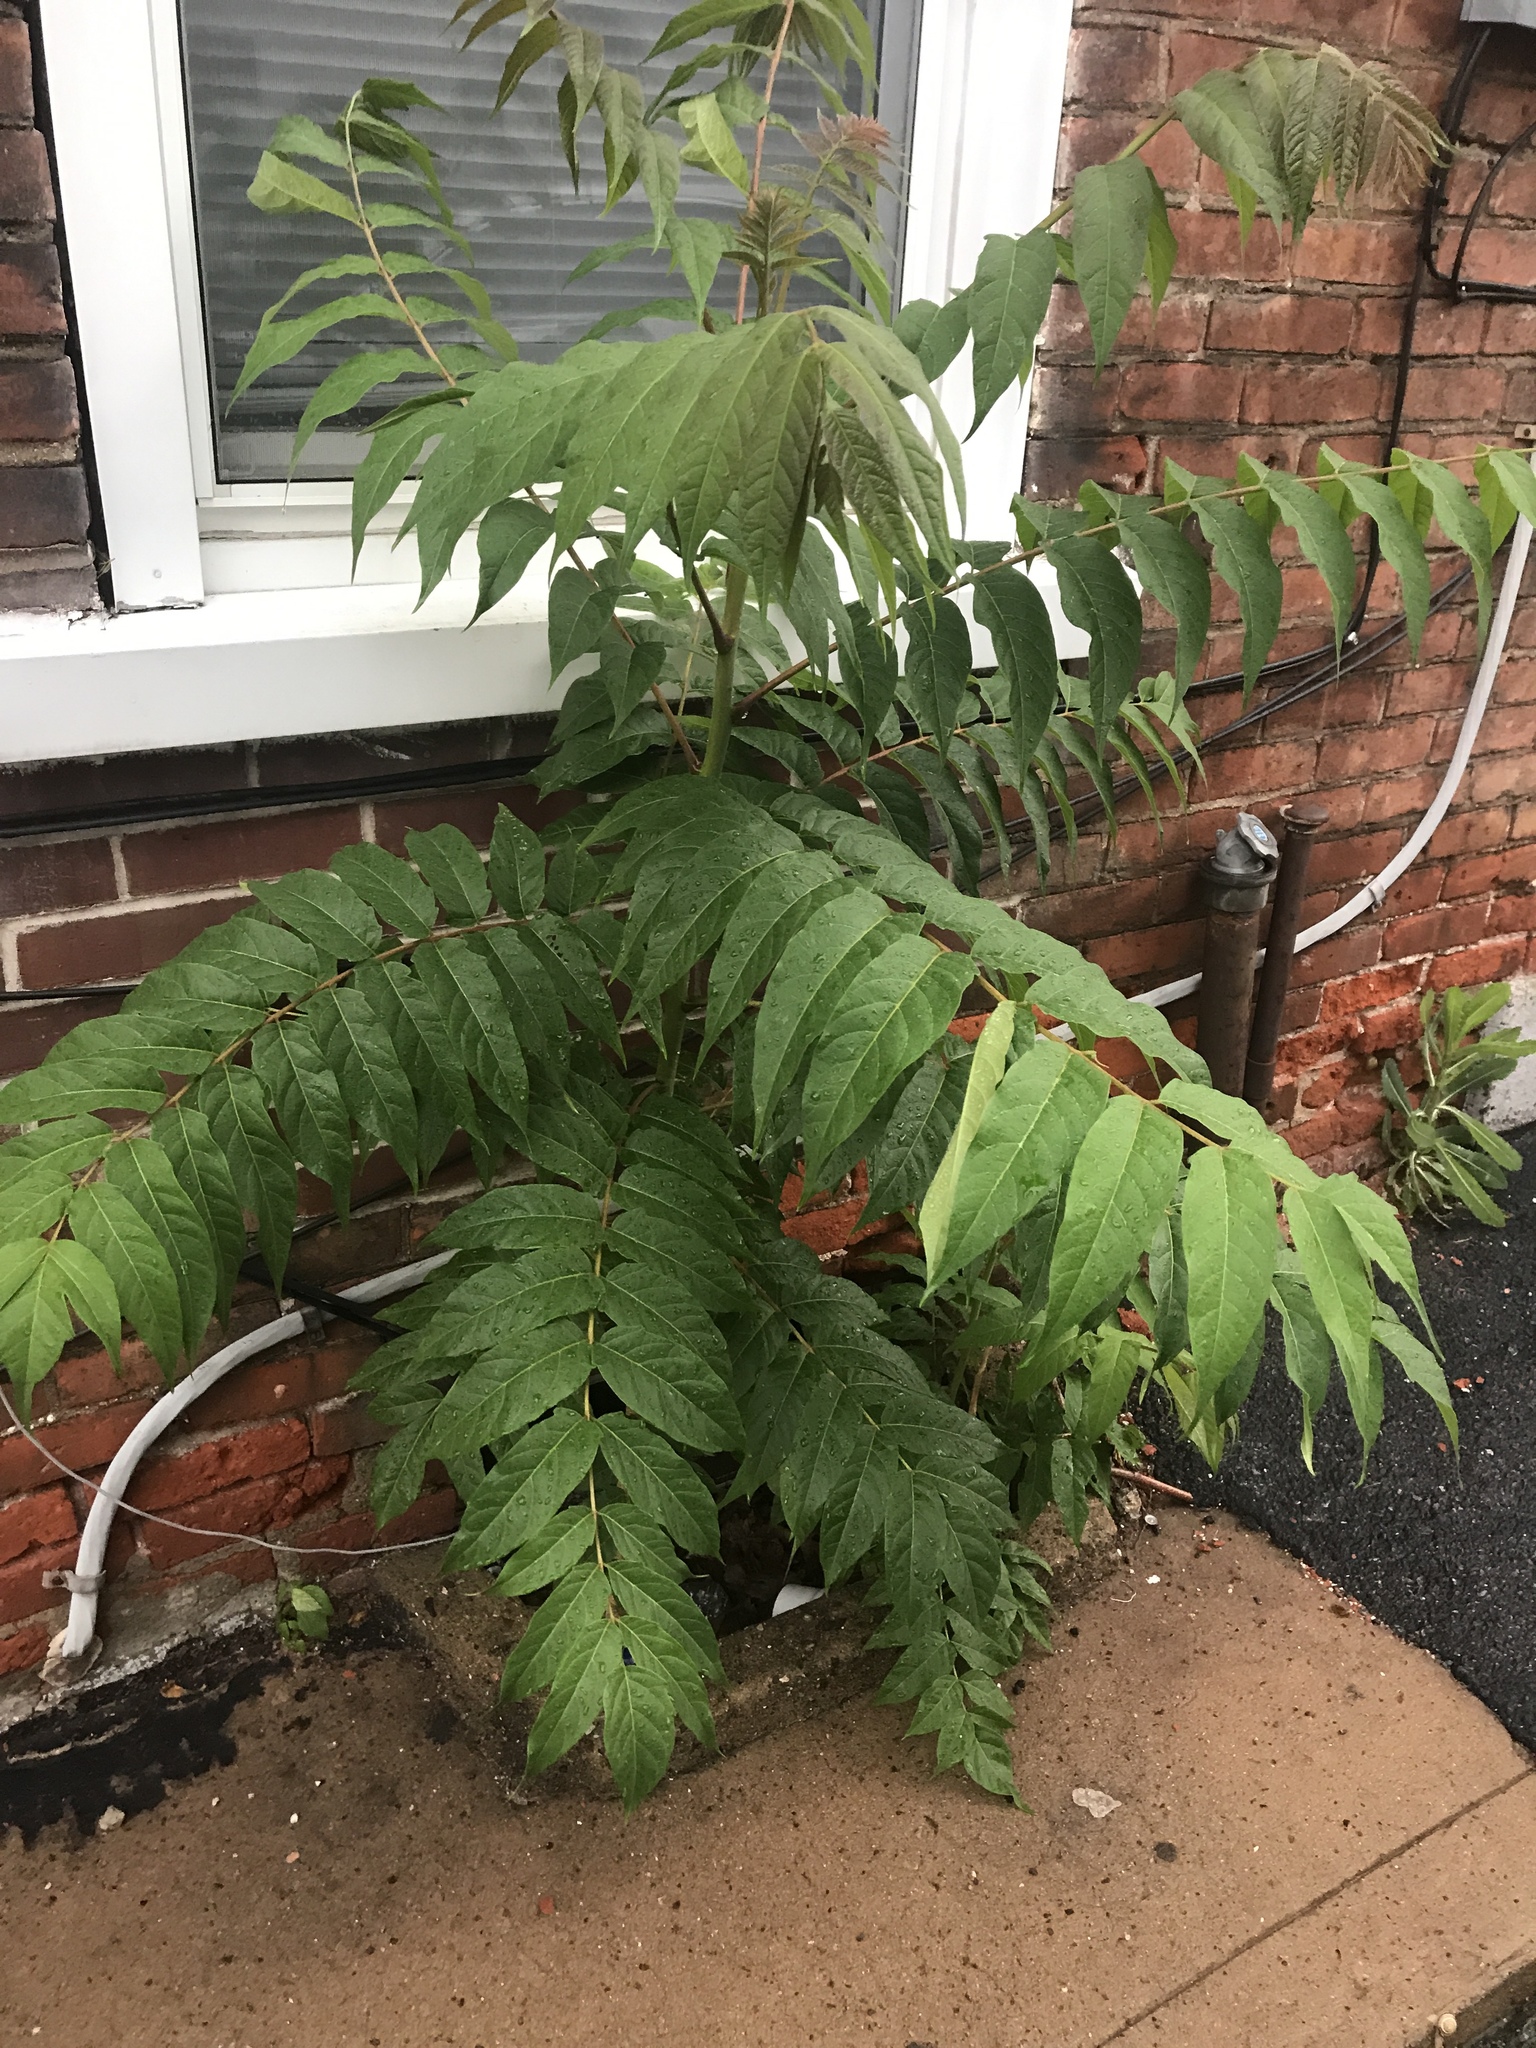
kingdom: Plantae
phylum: Tracheophyta
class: Magnoliopsida
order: Sapindales
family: Simaroubaceae
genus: Ailanthus
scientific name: Ailanthus altissima
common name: Tree-of-heaven
